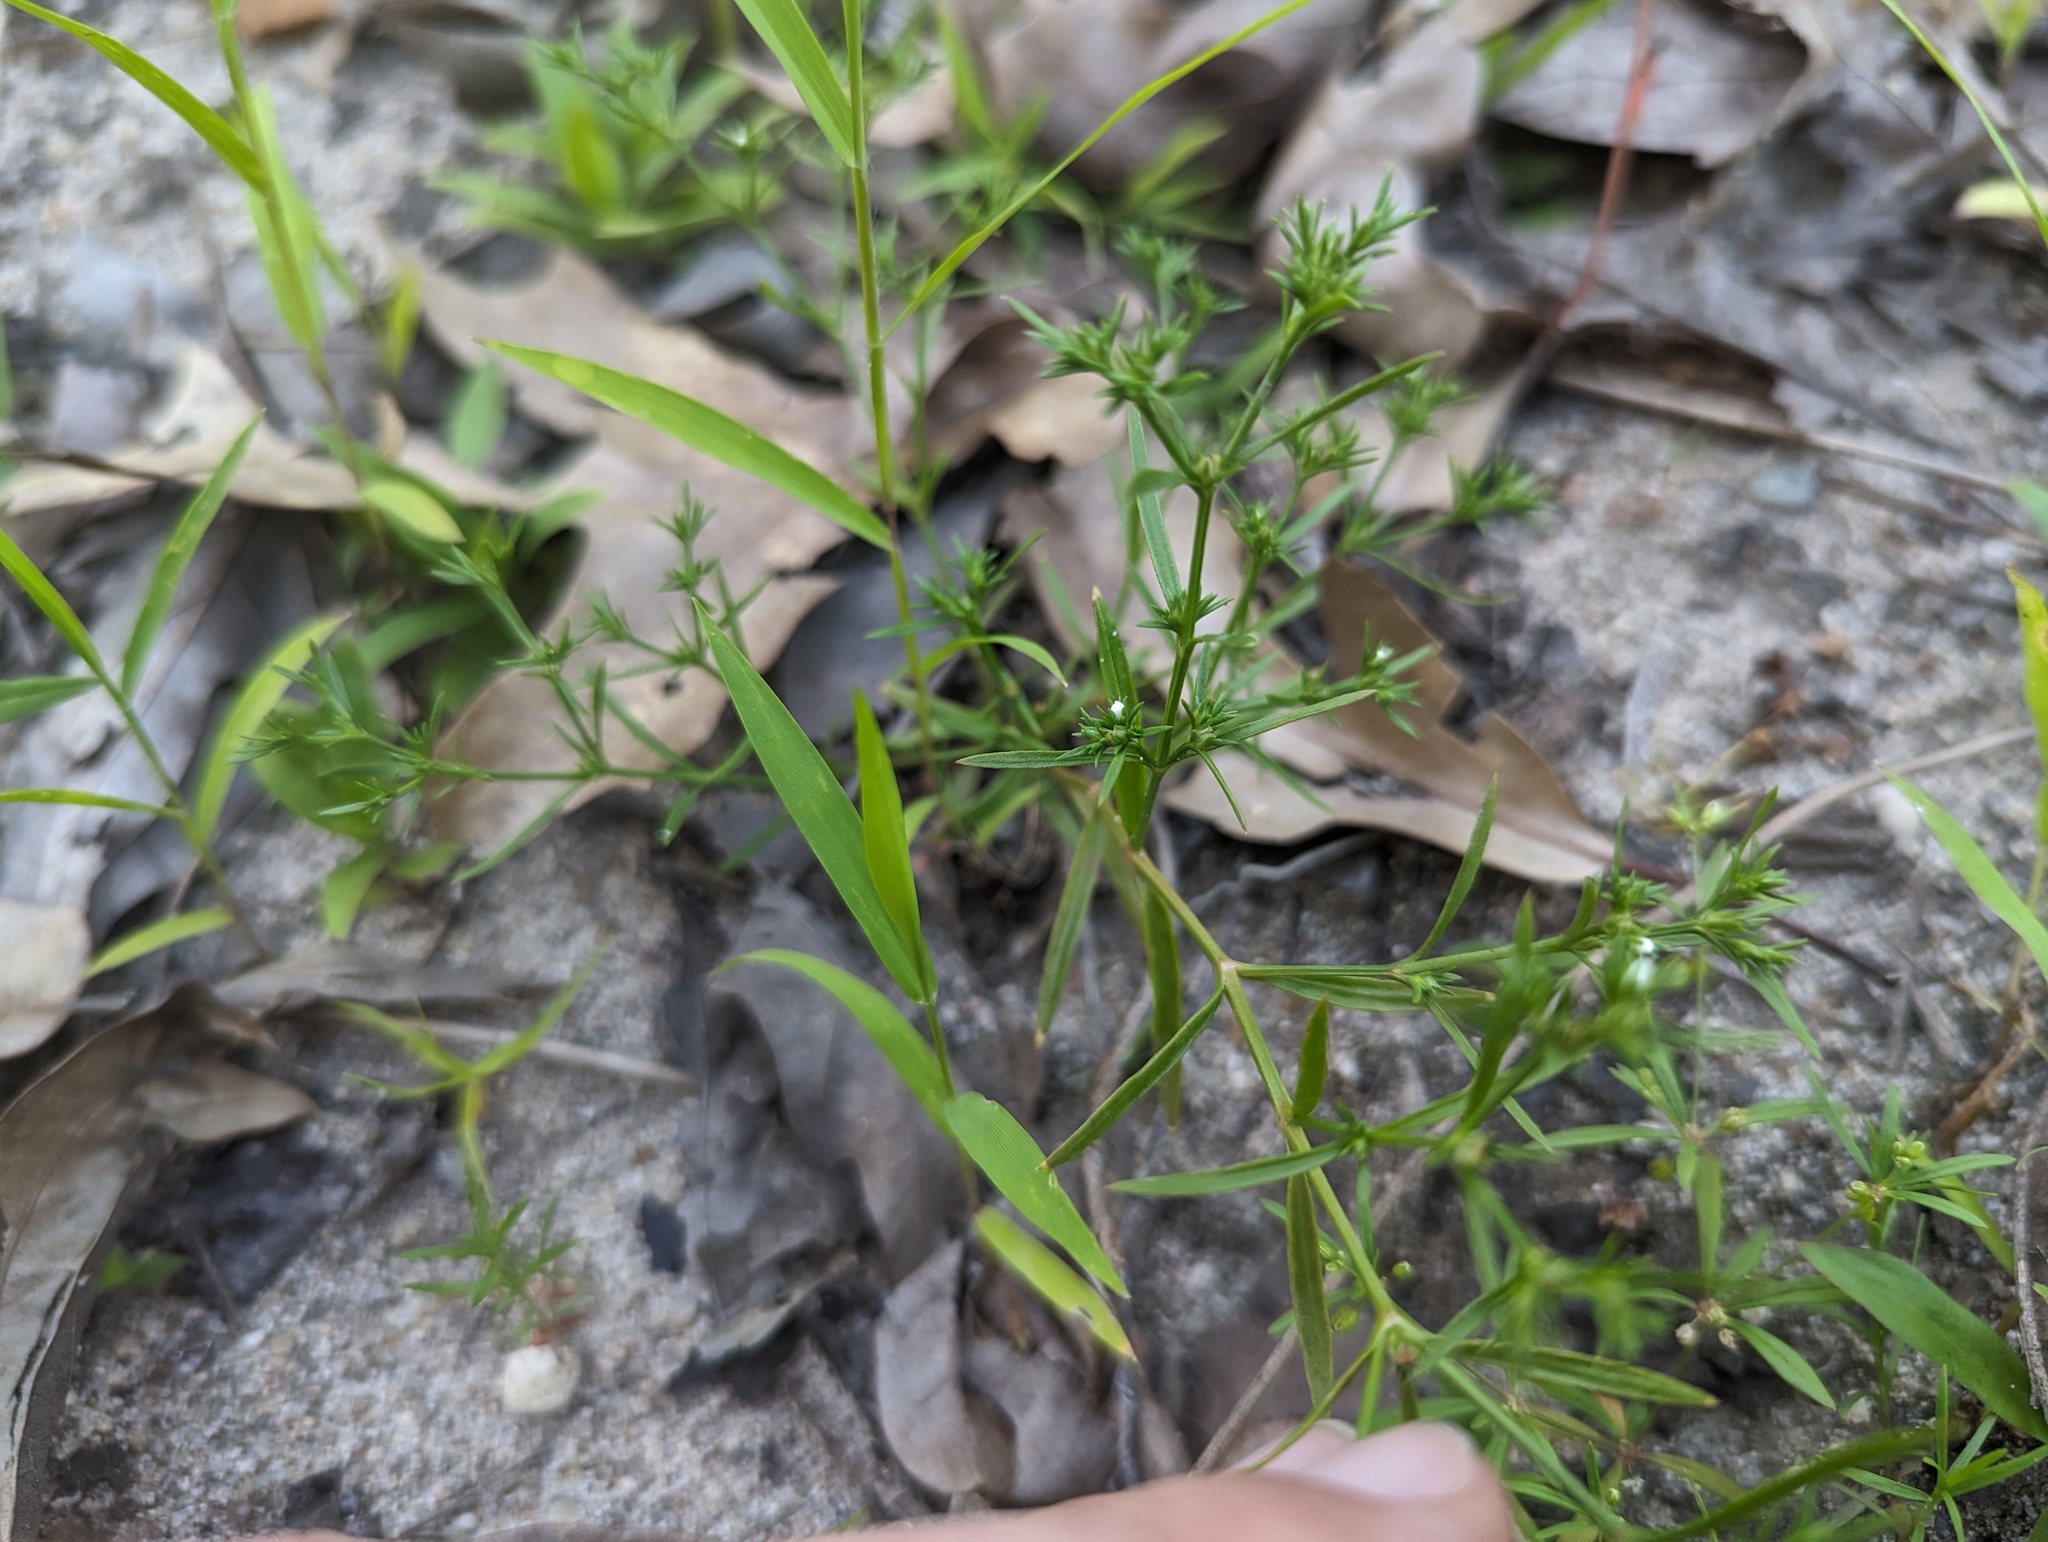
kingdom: Plantae
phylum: Tracheophyta
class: Magnoliopsida
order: Lamiales
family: Tetrachondraceae
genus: Polypremum
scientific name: Polypremum procumbens
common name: Juniper-leaf
